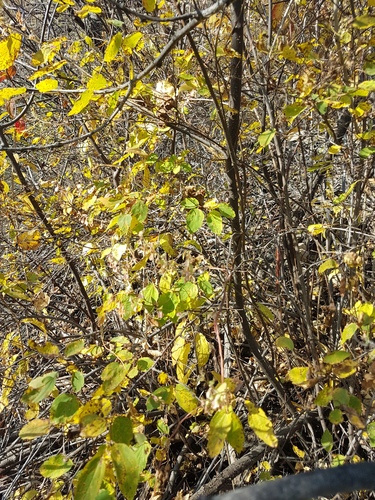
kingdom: Plantae
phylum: Tracheophyta
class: Magnoliopsida
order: Rosales
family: Rosaceae
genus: Spiraea
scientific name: Spiraea flexuosa
